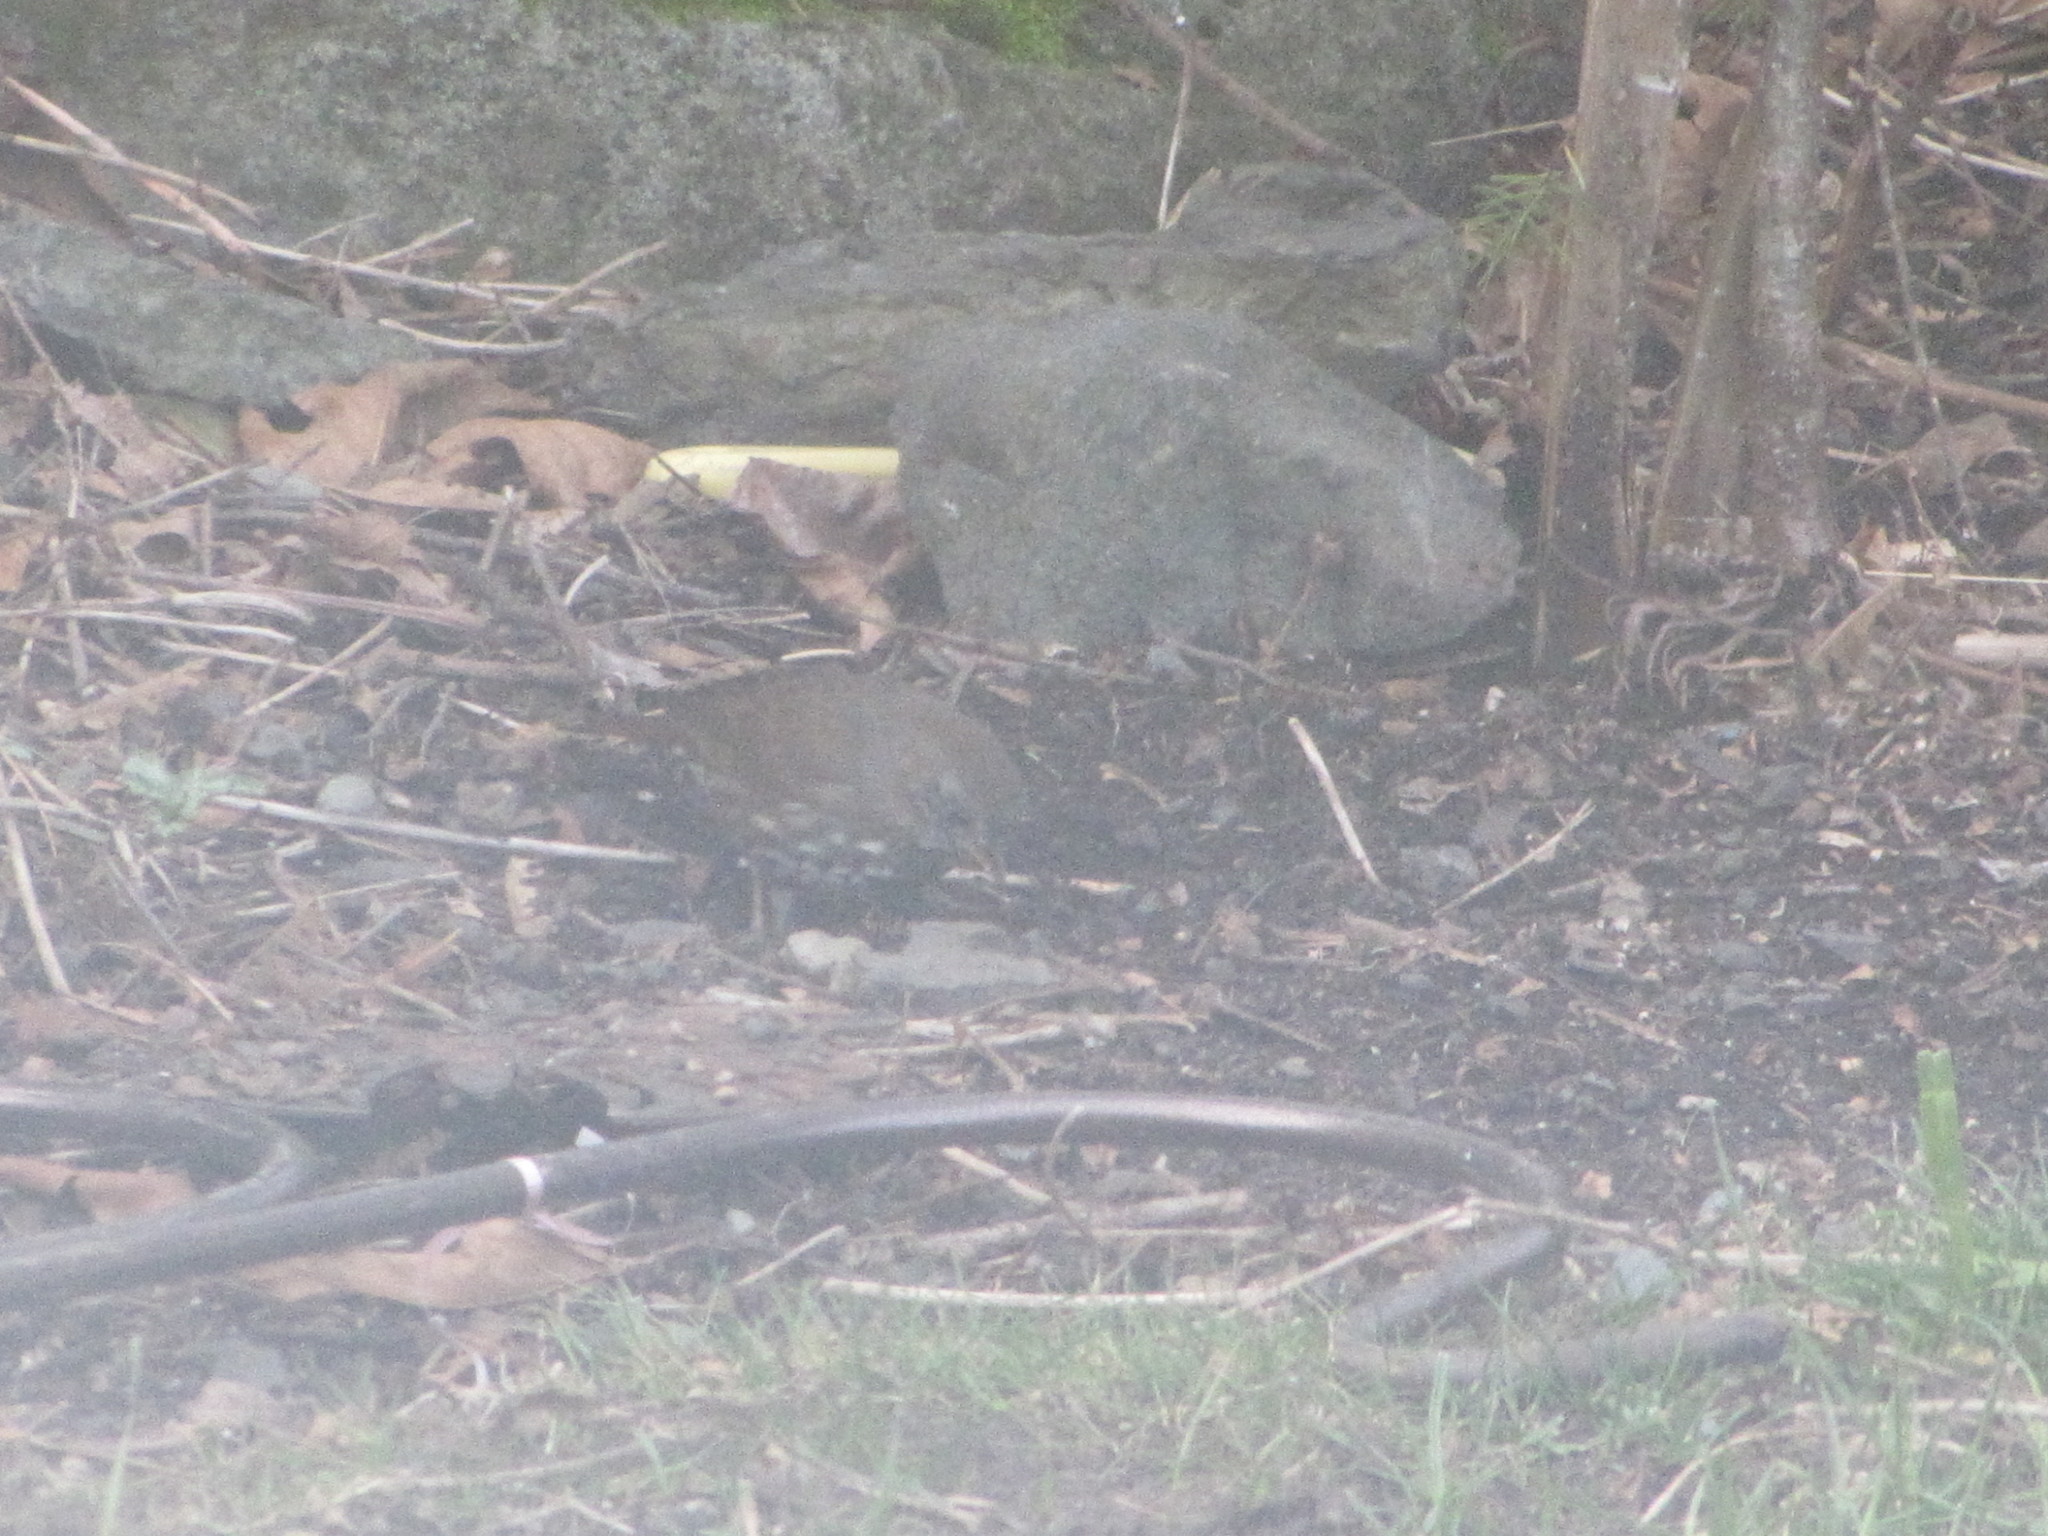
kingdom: Animalia
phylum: Chordata
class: Aves
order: Passeriformes
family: Passerellidae
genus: Passerella
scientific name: Passerella iliaca
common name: Fox sparrow
